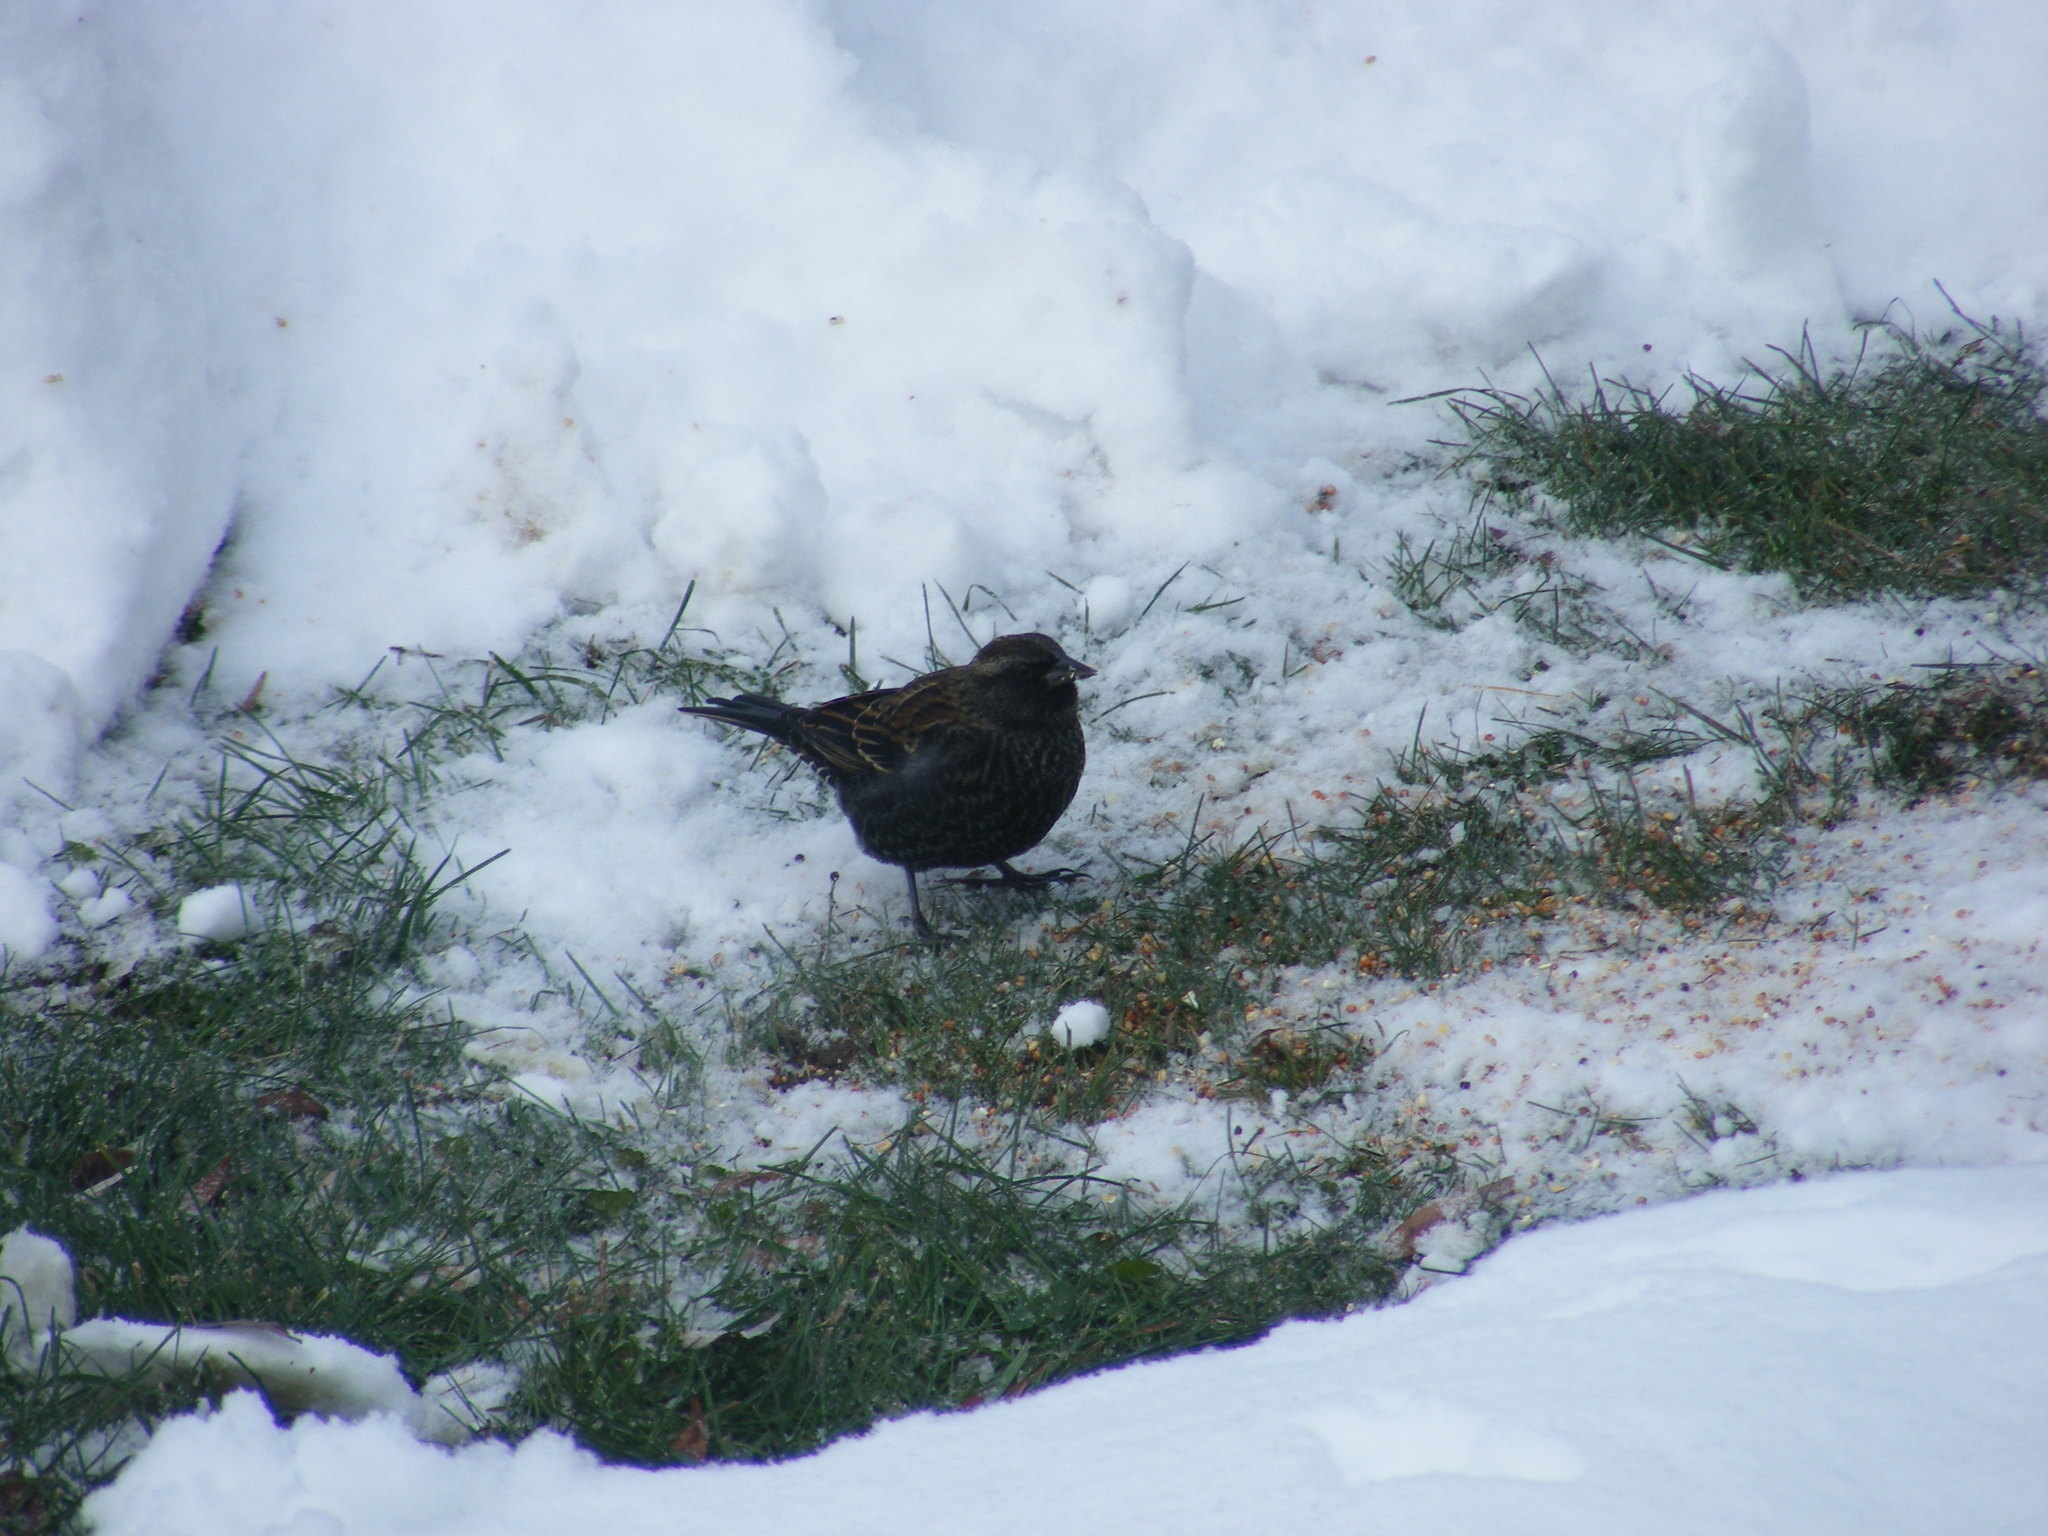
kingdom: Animalia
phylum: Chordata
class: Aves
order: Passeriformes
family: Icteridae
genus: Agelaius
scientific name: Agelaius phoeniceus
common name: Red-winged blackbird
